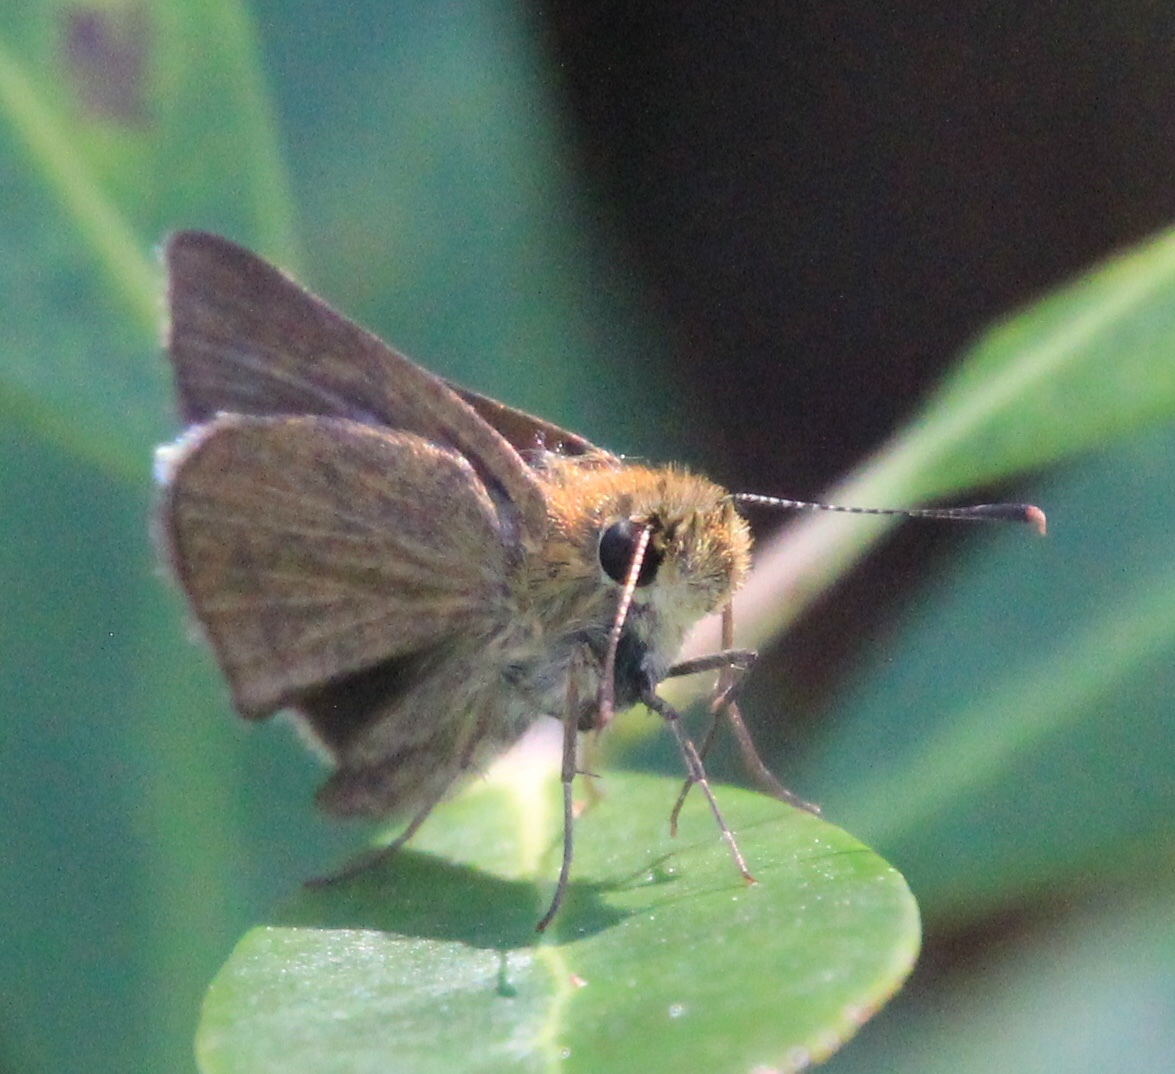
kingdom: Animalia
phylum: Arthropoda
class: Insecta
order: Lepidoptera
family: Hesperiidae
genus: Nastra
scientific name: Nastra lherminier
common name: Swarthy skipper
